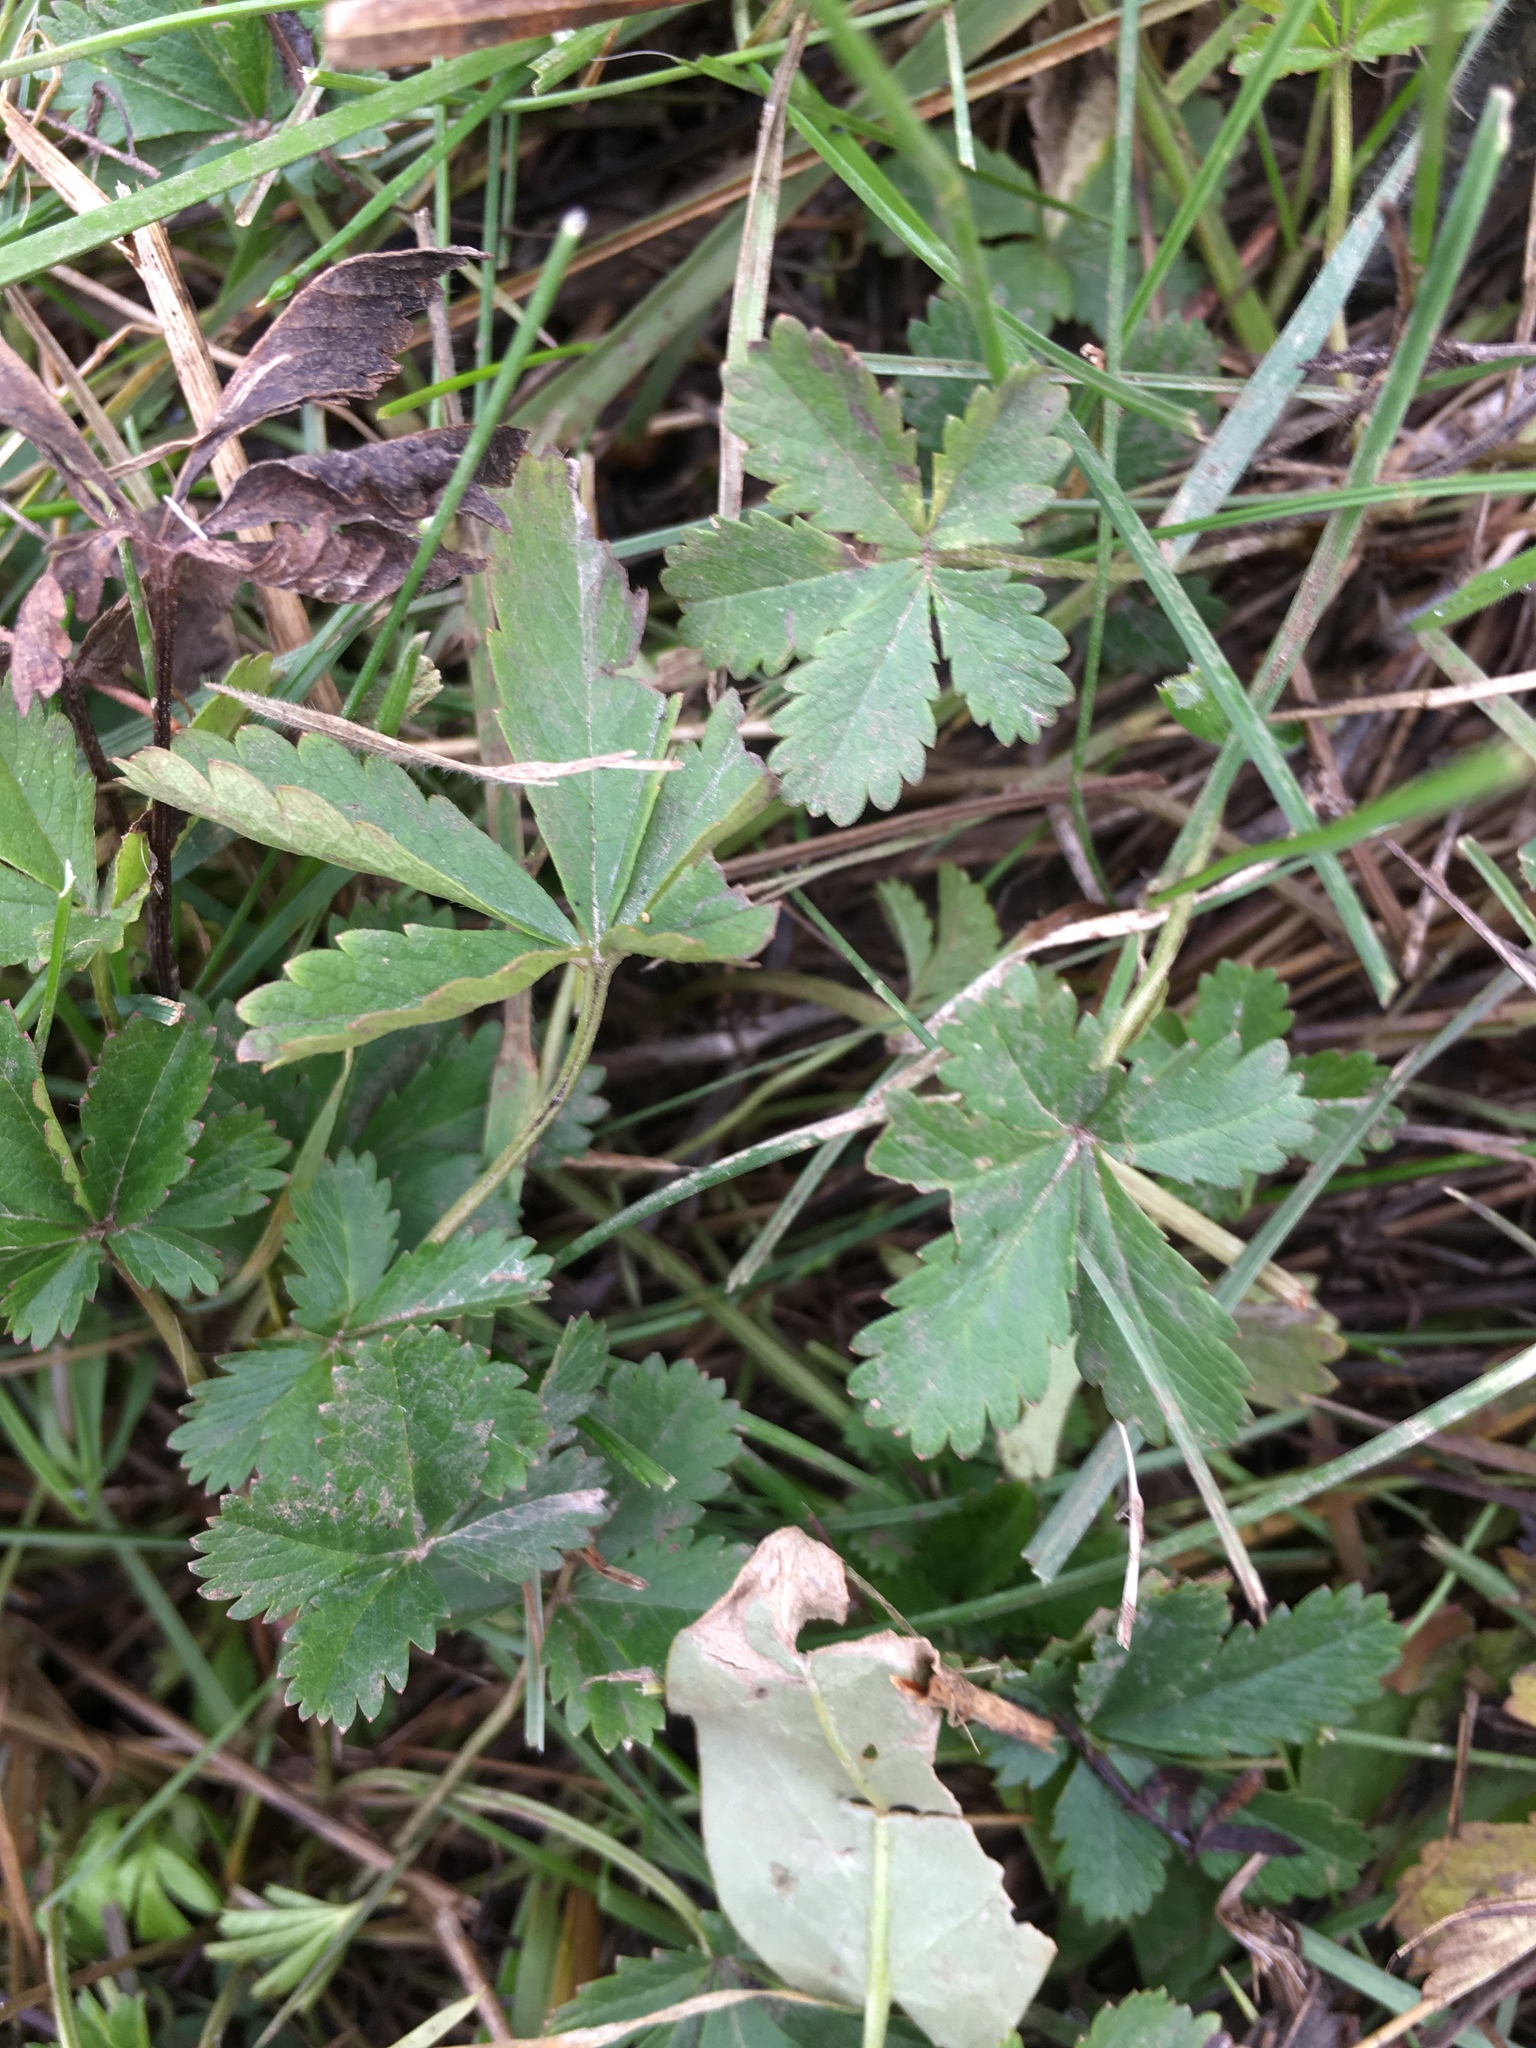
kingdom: Plantae
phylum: Tracheophyta
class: Magnoliopsida
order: Rosales
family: Rosaceae
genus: Potentilla
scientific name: Potentilla reptans
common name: Creeping cinquefoil
